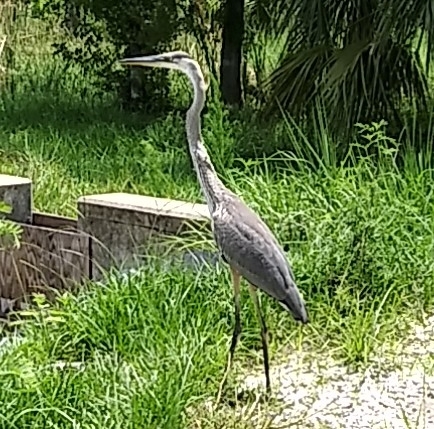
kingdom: Animalia
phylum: Chordata
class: Aves
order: Pelecaniformes
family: Ardeidae
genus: Ardea
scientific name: Ardea herodias
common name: Great blue heron
